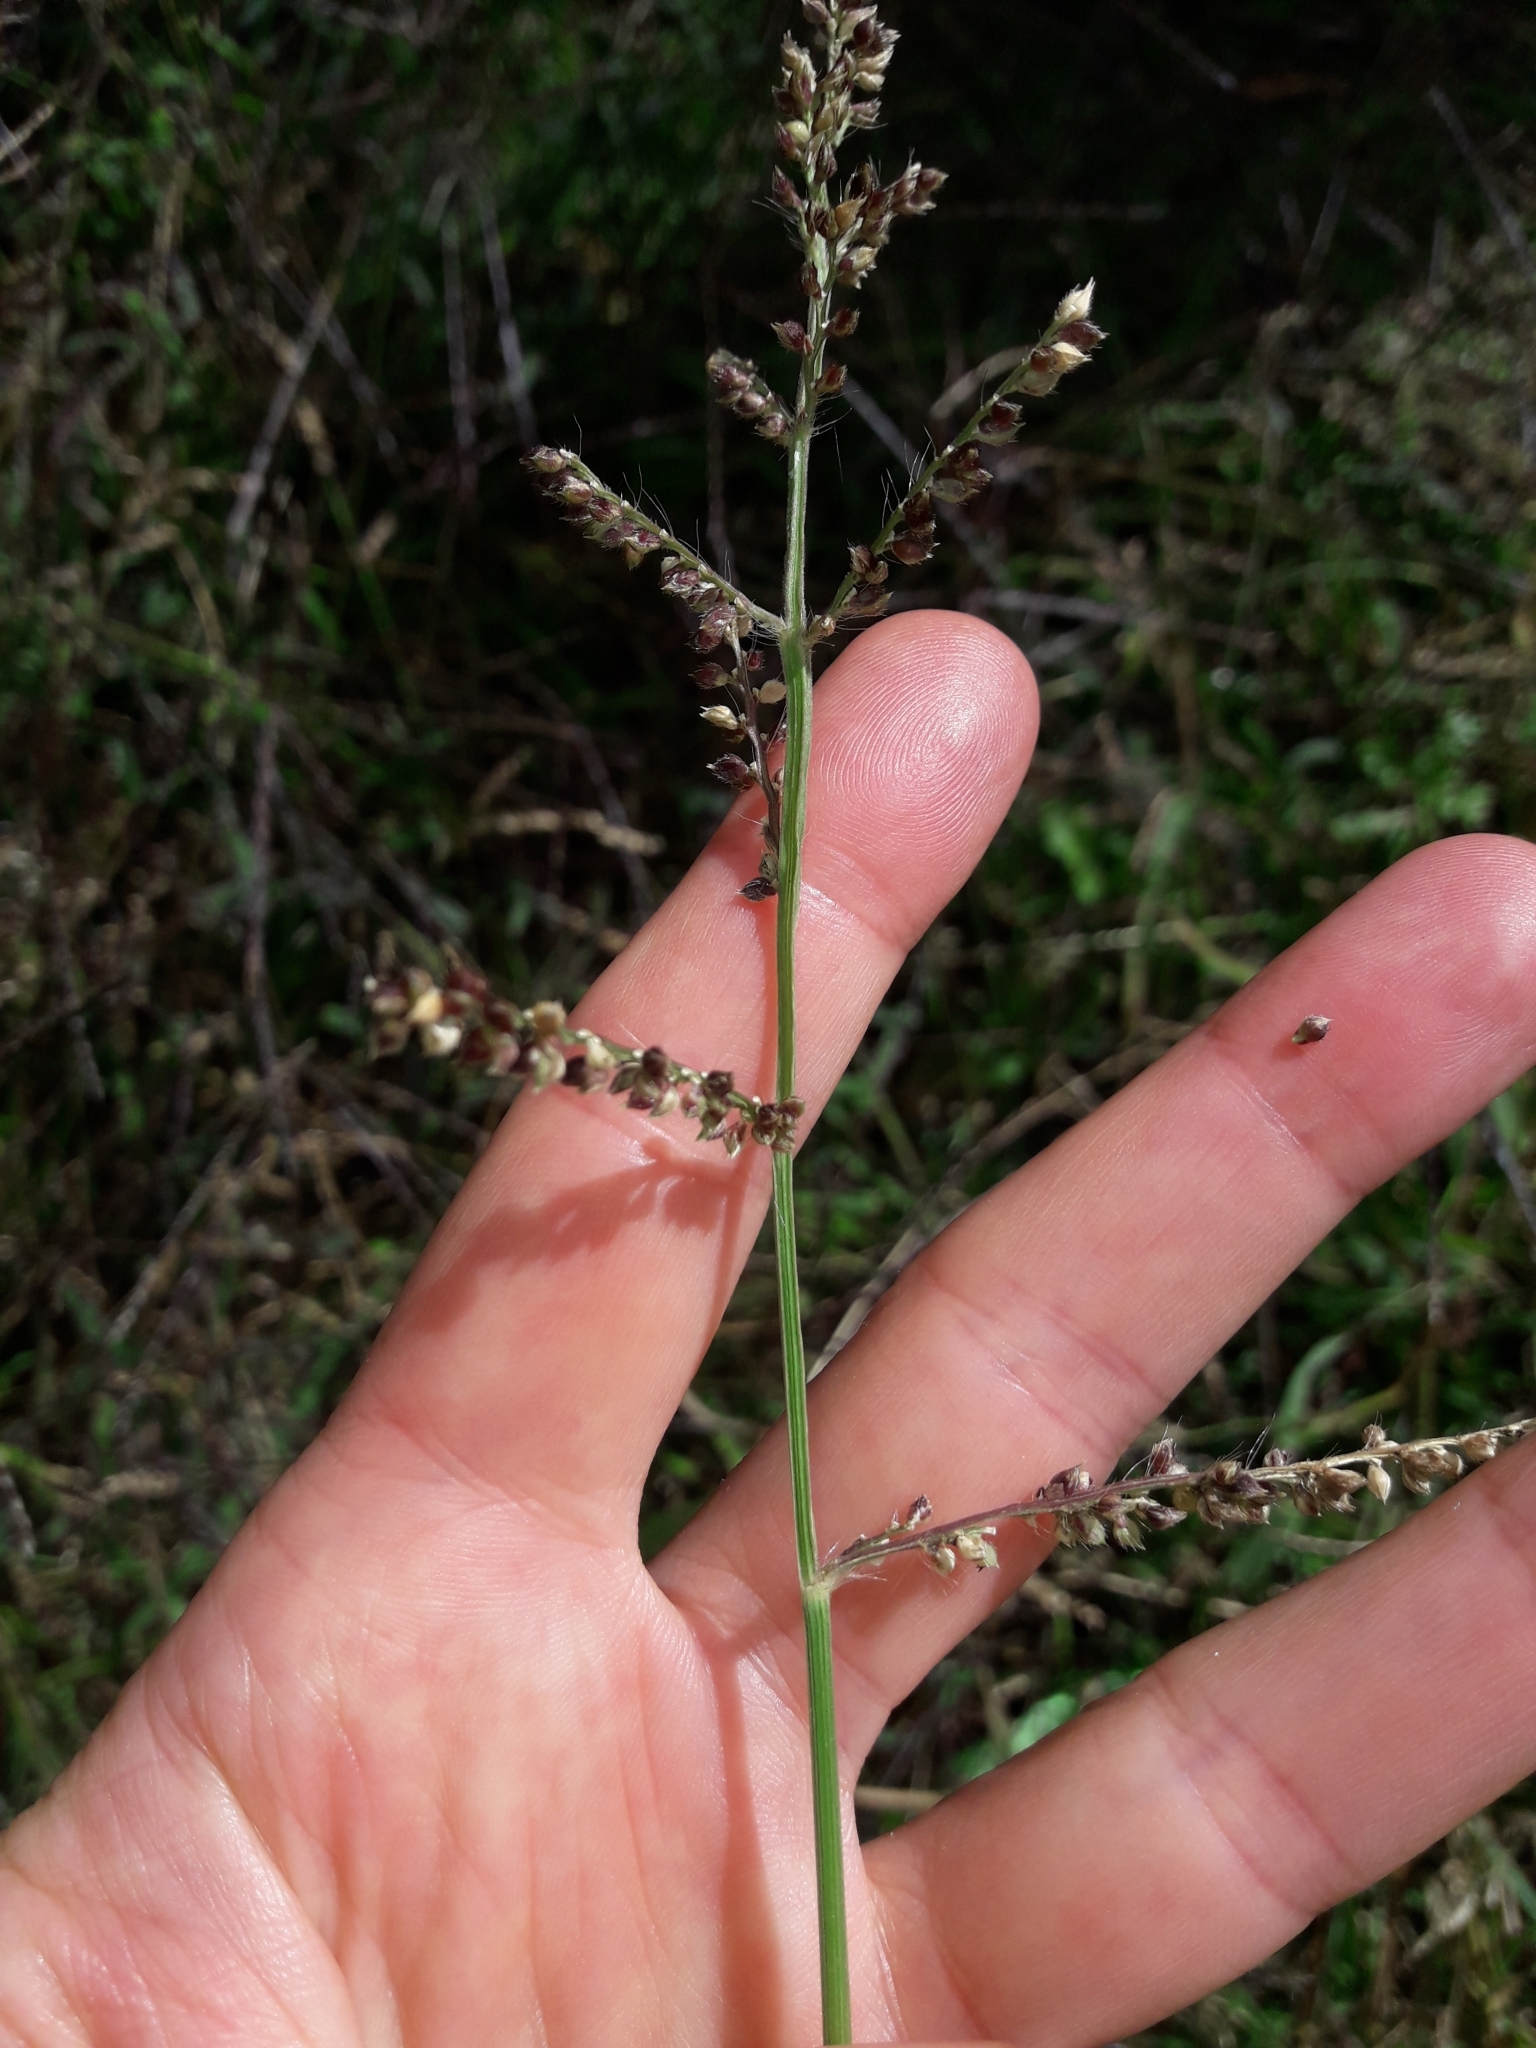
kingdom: Plantae
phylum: Tracheophyta
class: Liliopsida
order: Poales
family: Poaceae
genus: Echinochloa
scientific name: Echinochloa crus-galli
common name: Cockspur
